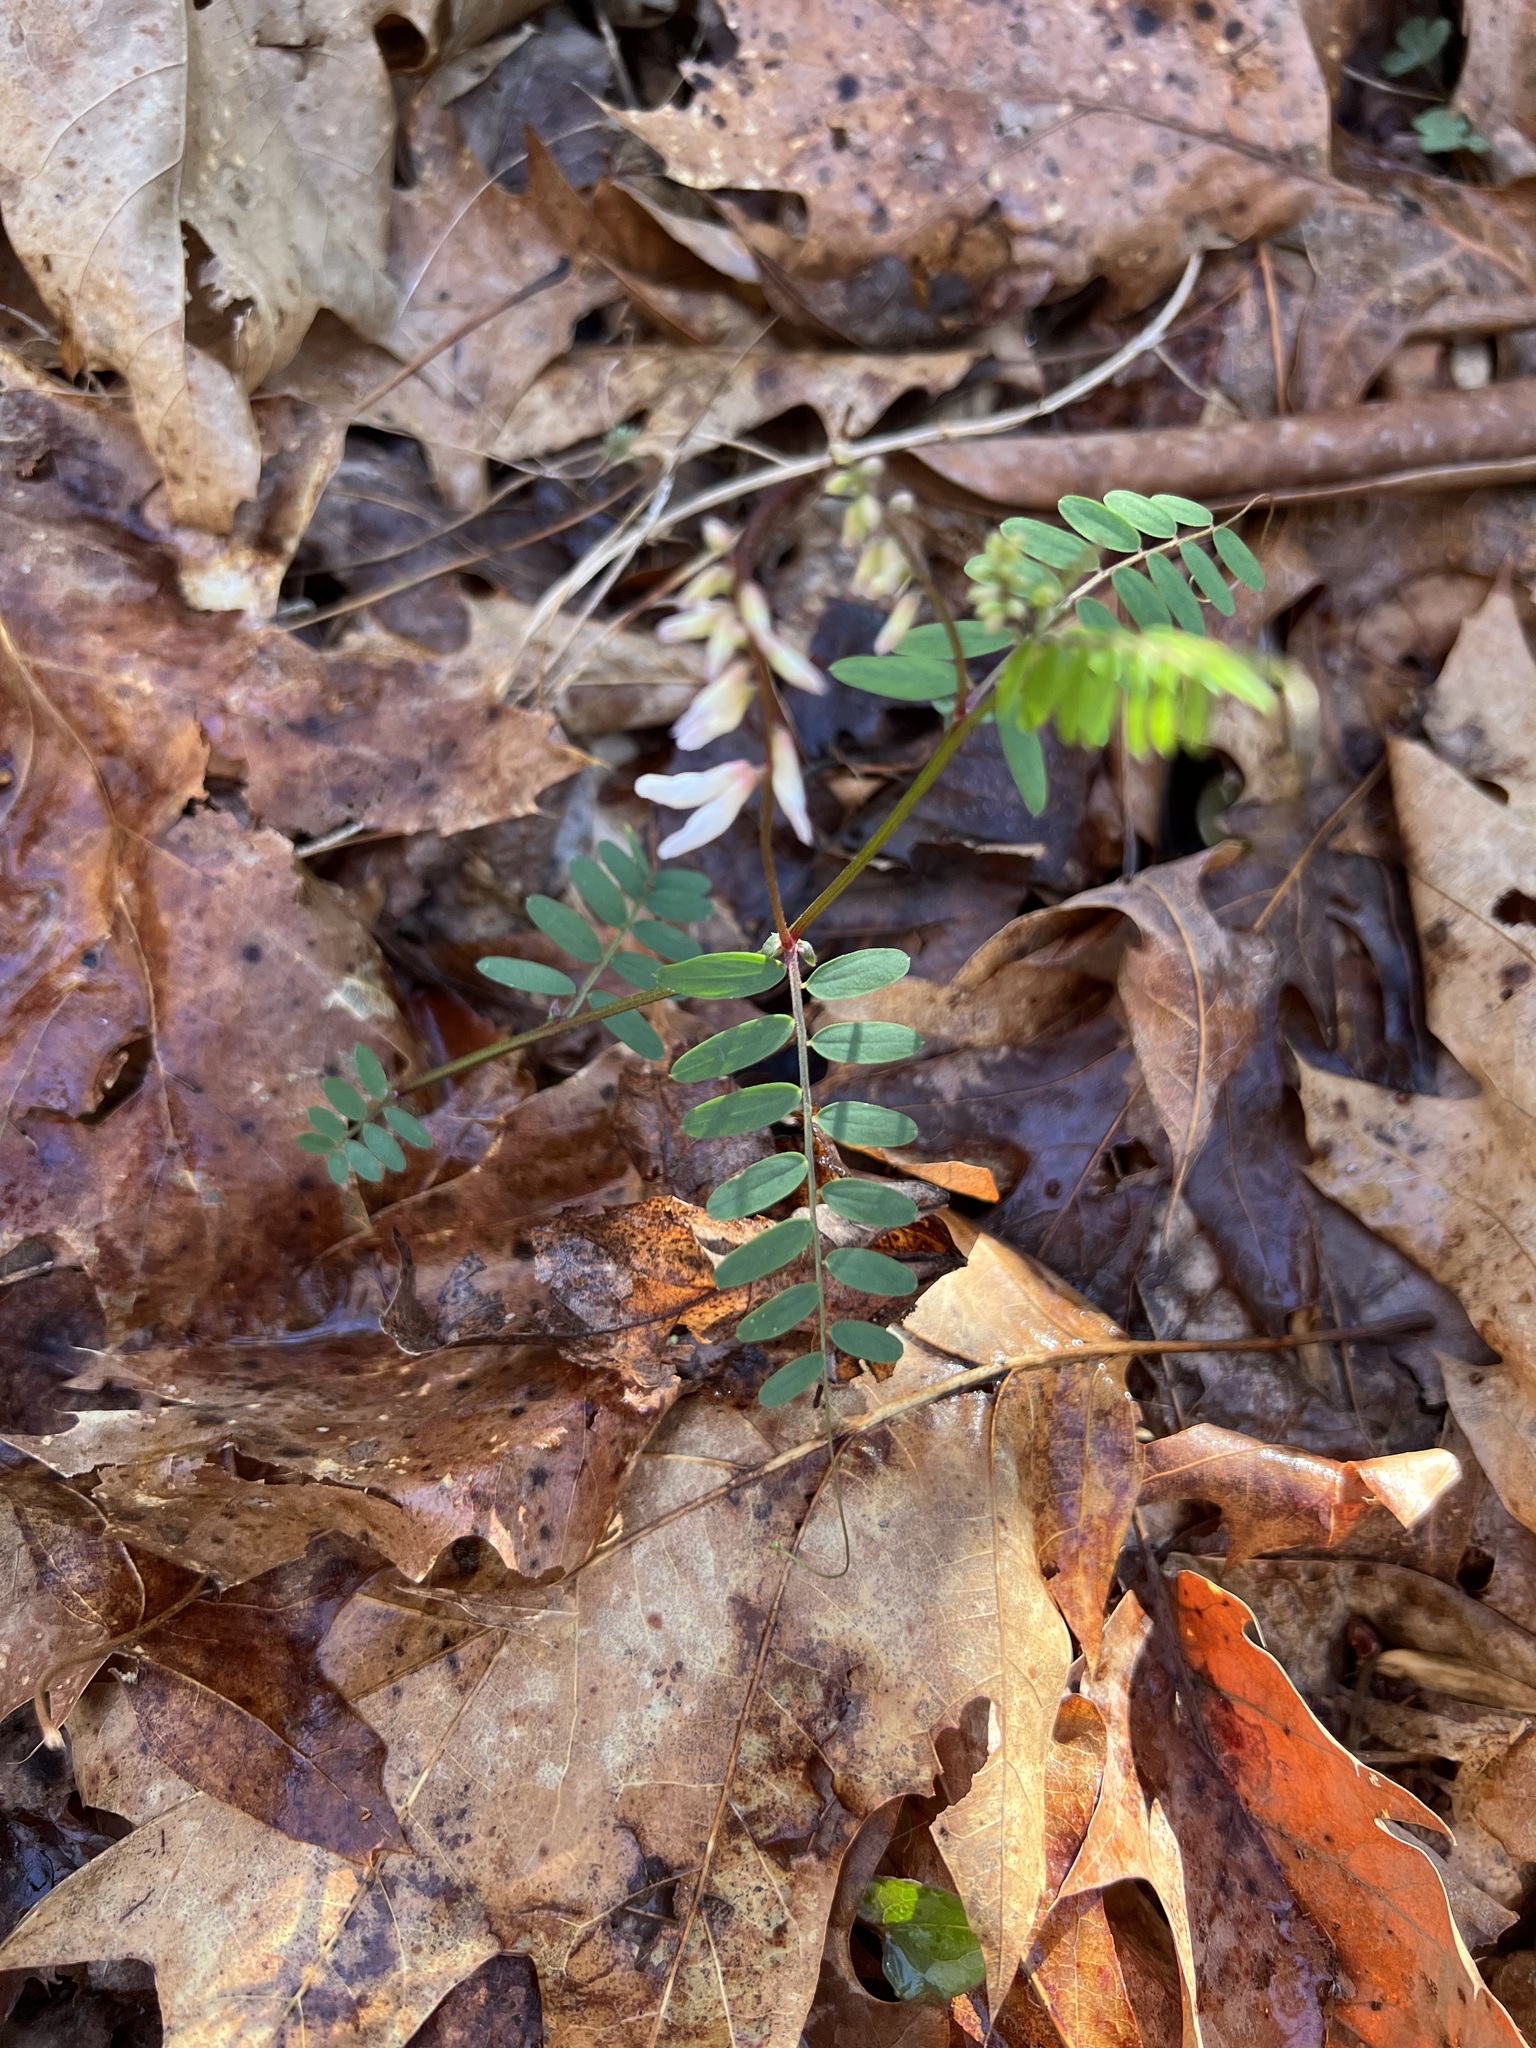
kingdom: Plantae
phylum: Tracheophyta
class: Magnoliopsida
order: Fabales
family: Fabaceae
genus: Vicia
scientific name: Vicia caroliniana
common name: Carolina vetch
